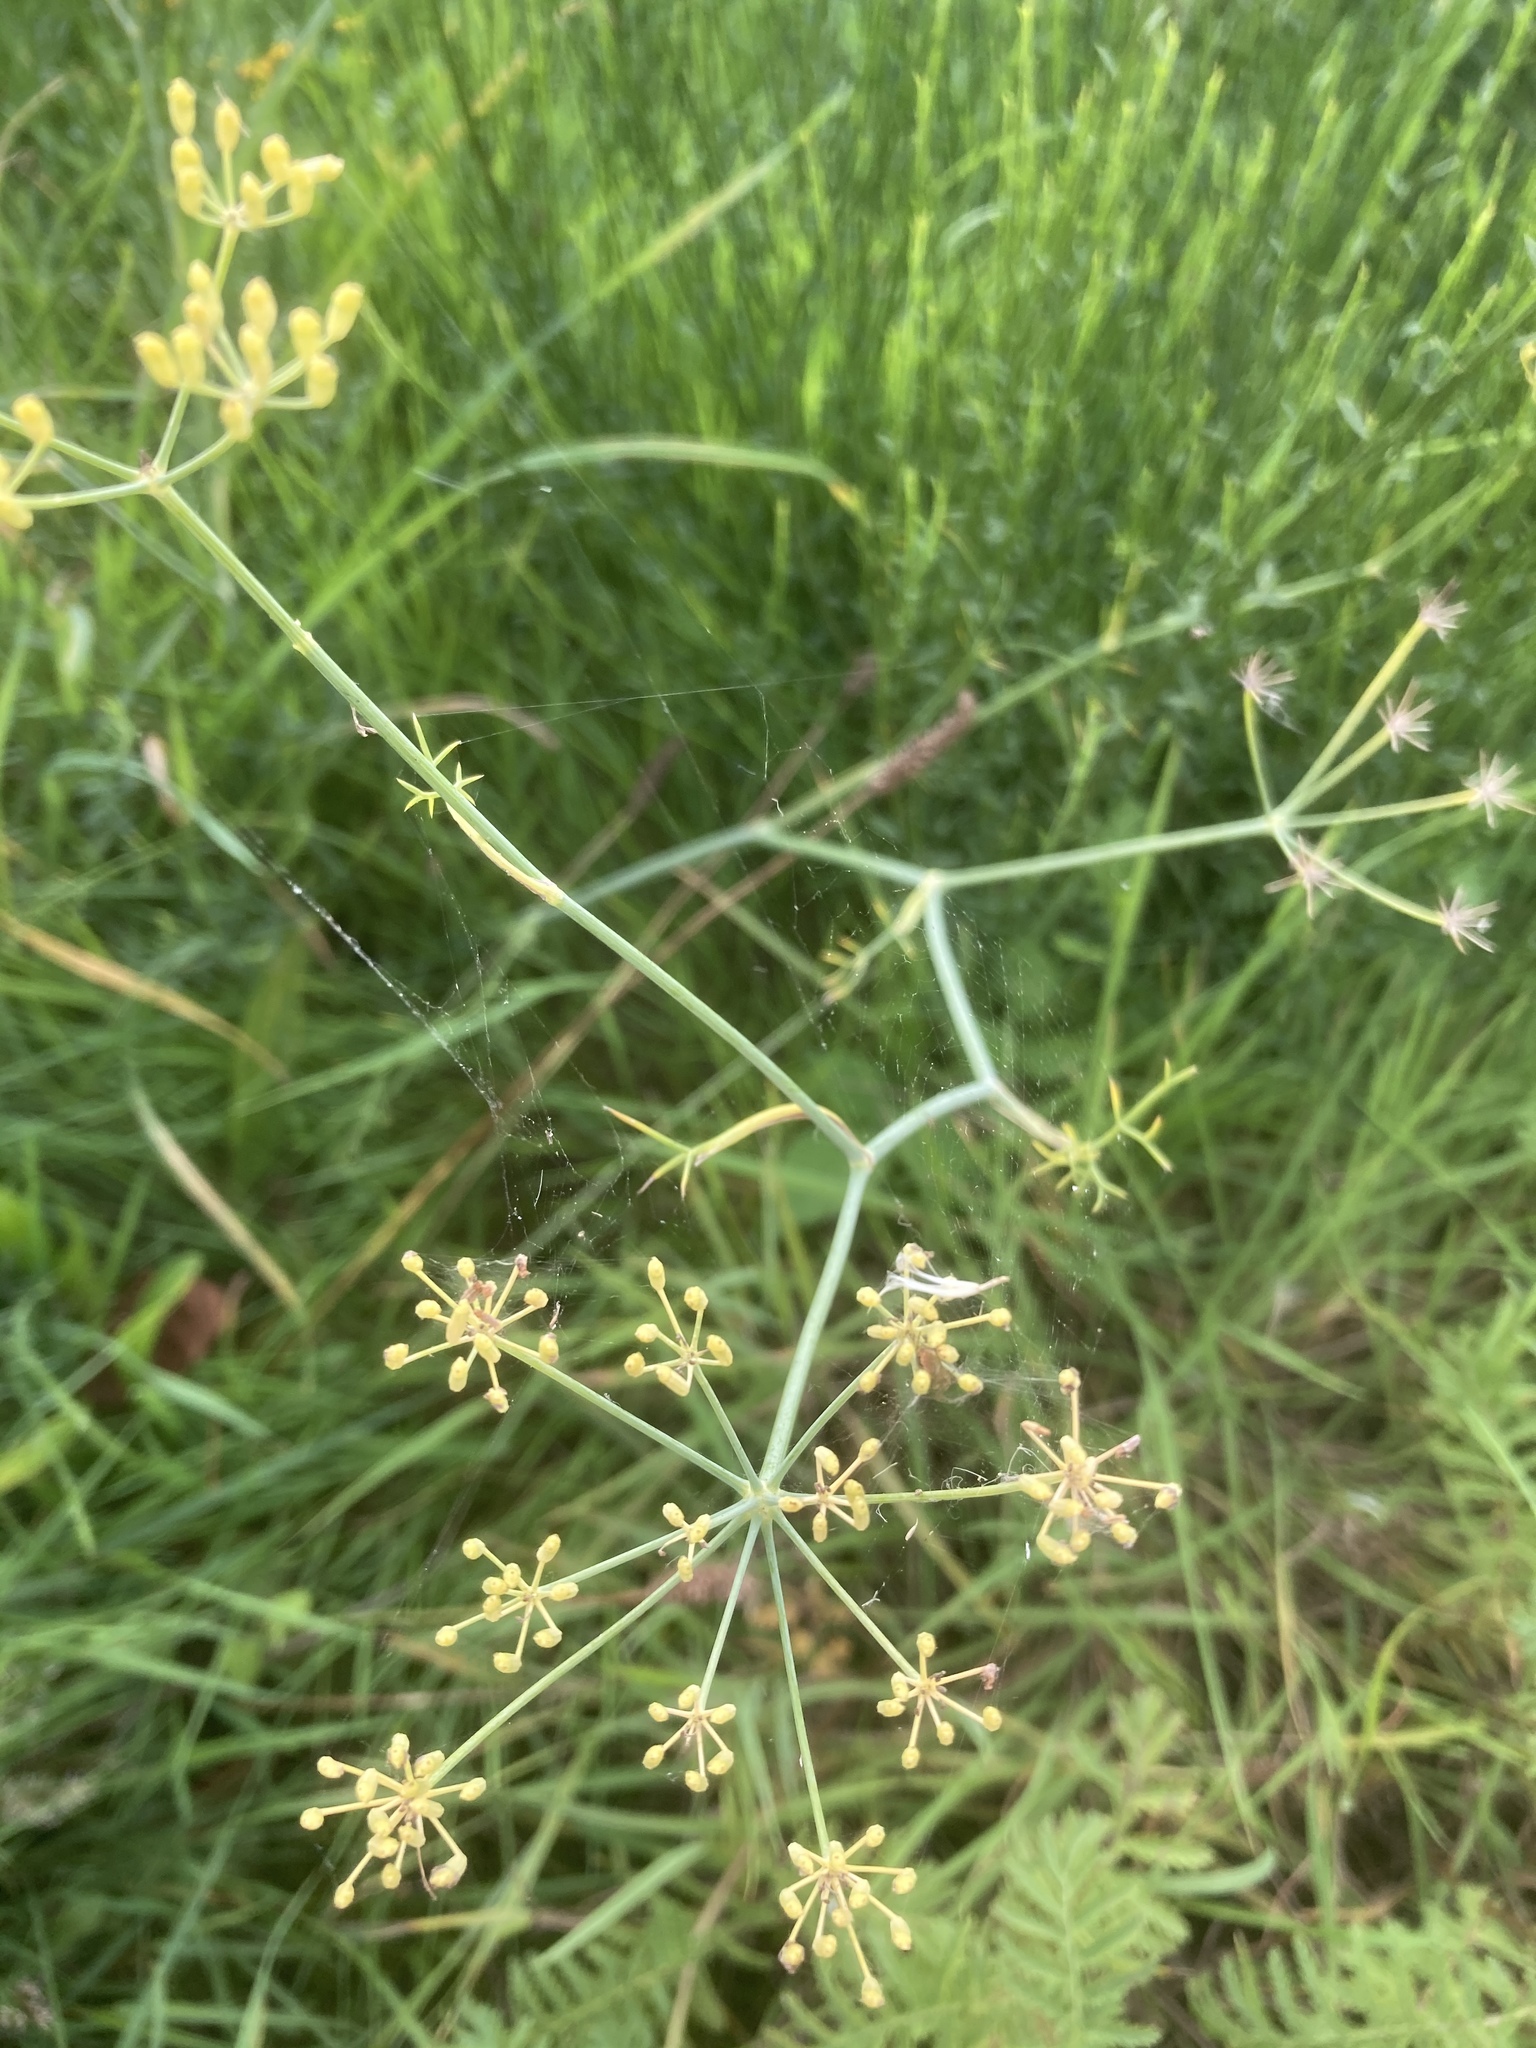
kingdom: Plantae
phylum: Tracheophyta
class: Magnoliopsida
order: Apiales
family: Apiaceae
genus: Foeniculum
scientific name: Foeniculum vulgare
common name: Fennel
